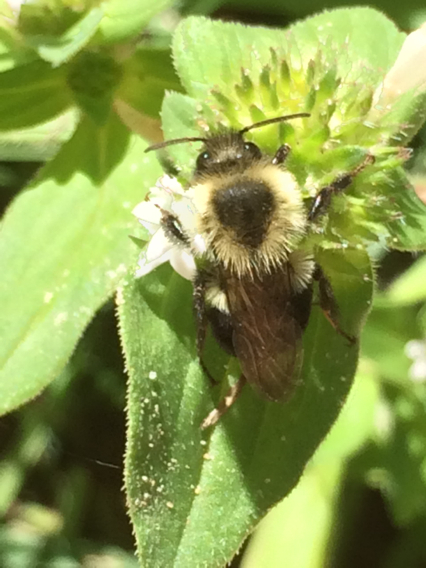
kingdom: Animalia
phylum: Arthropoda
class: Insecta
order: Hymenoptera
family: Apidae
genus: Bombus
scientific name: Bombus impatiens
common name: Common eastern bumble bee
